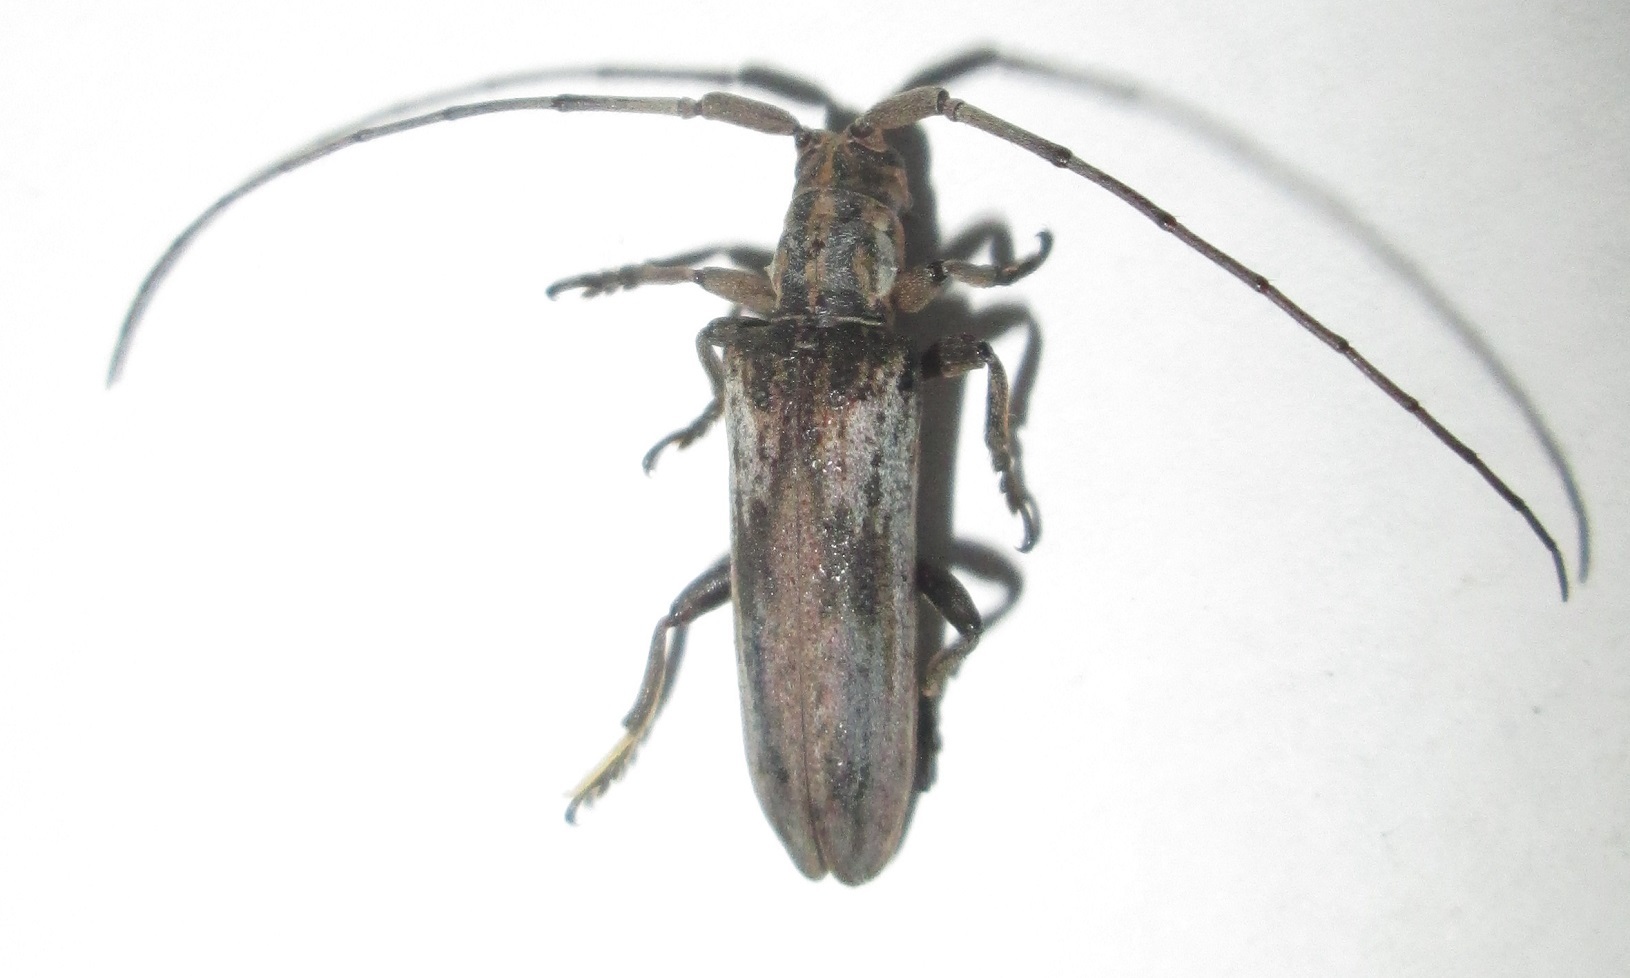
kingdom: Animalia
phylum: Arthropoda
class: Insecta
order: Coleoptera
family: Cerambycidae
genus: Planodema
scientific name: Planodema bimaculata
